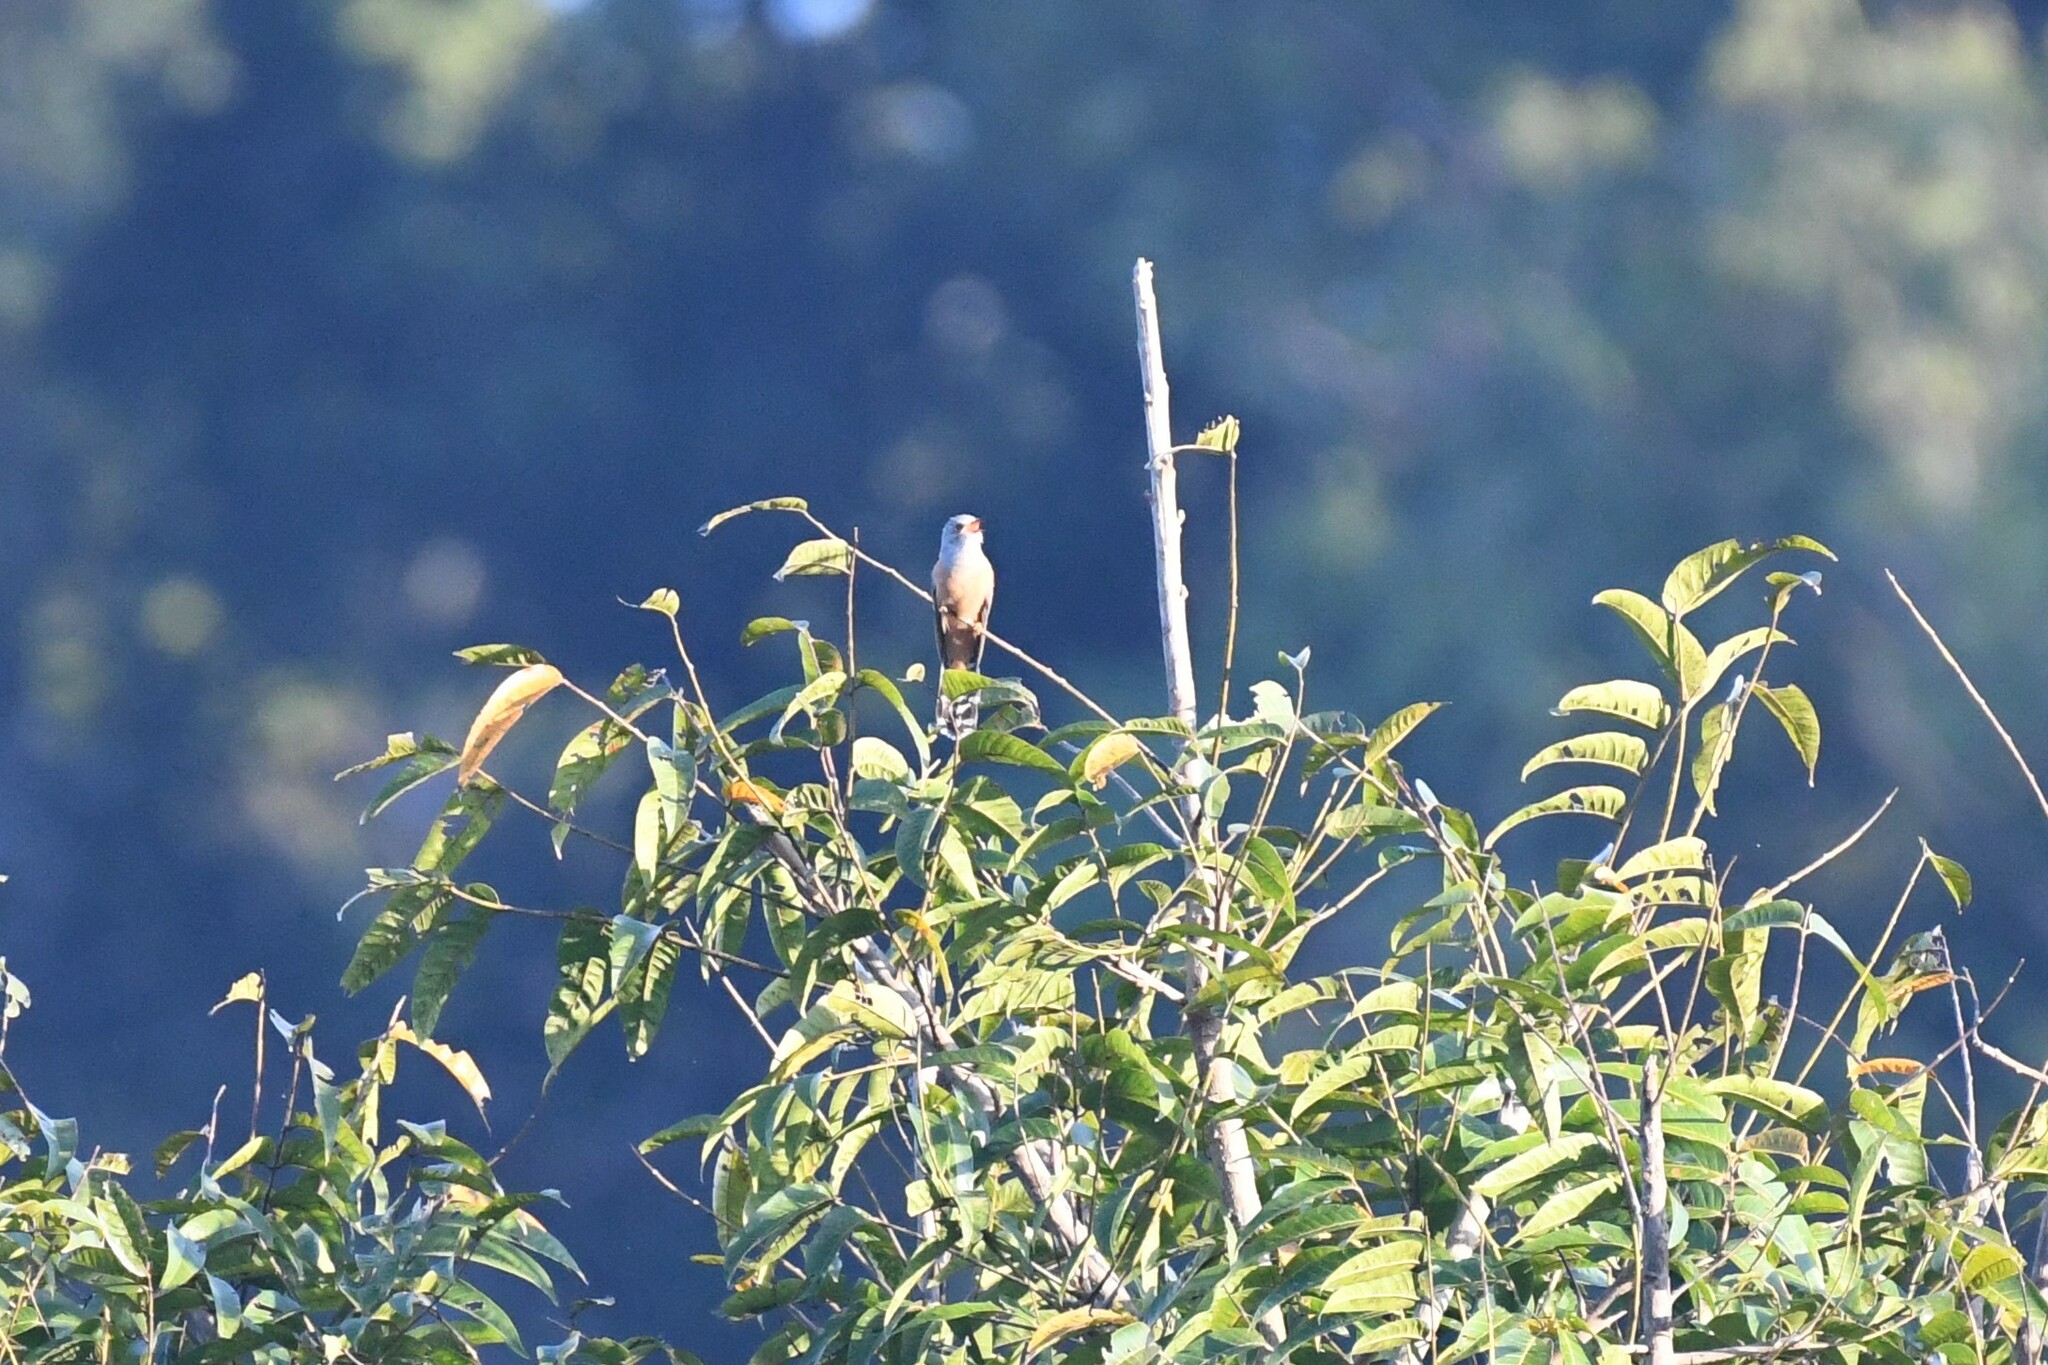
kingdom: Animalia
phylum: Chordata
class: Aves
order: Cuculiformes
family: Cuculidae
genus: Cacomantis
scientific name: Cacomantis merulinus
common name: Plaintive cuckoo
